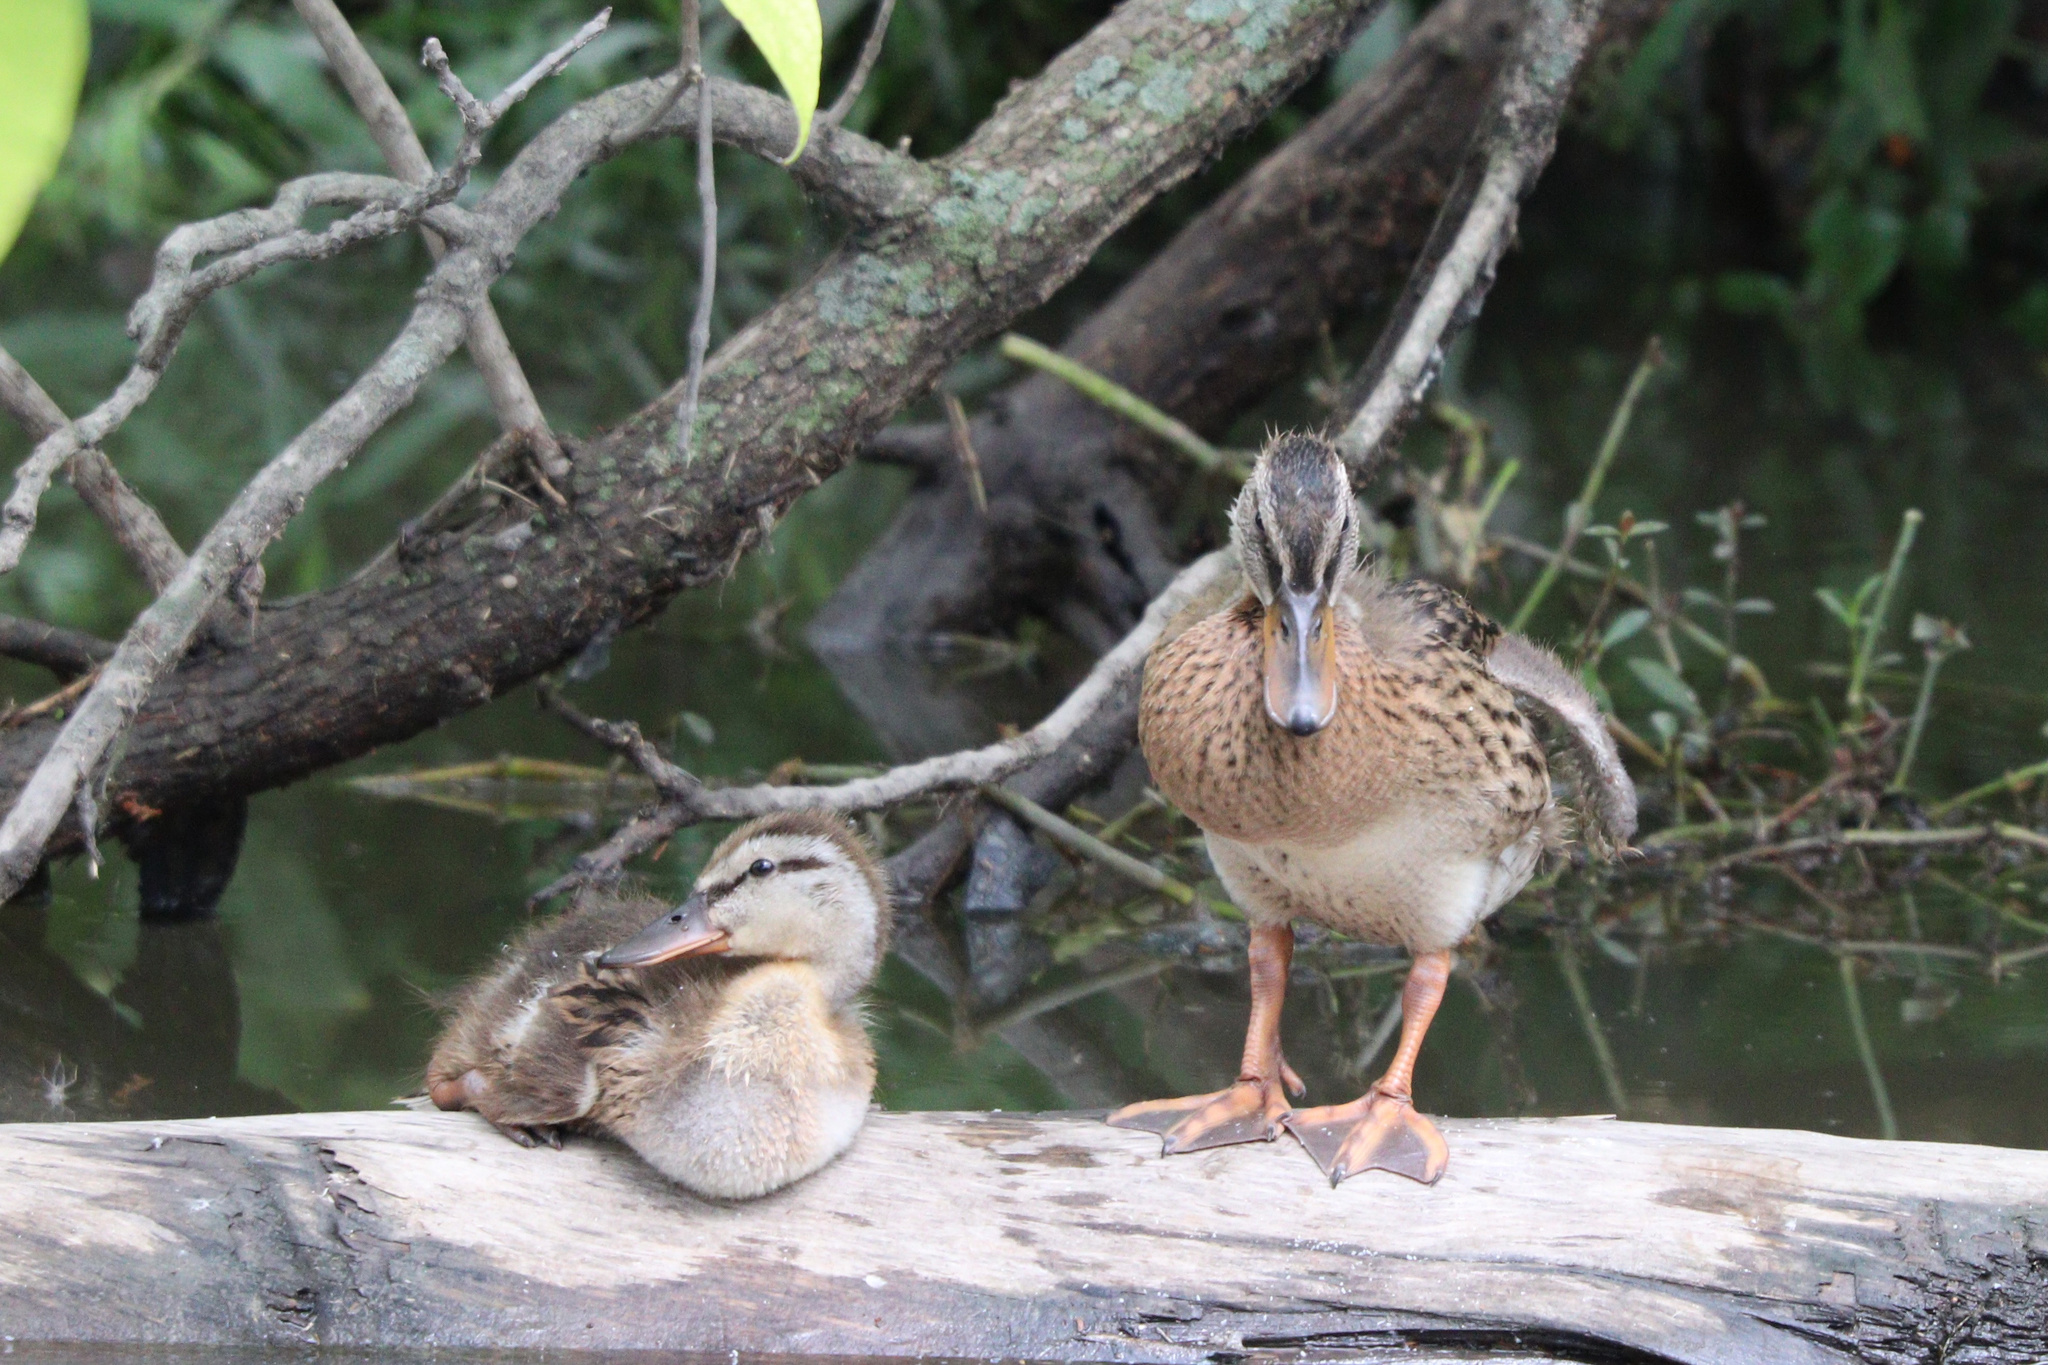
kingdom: Animalia
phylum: Chordata
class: Aves
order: Anseriformes
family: Anatidae
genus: Anas
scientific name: Anas platyrhynchos
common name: Mallard
